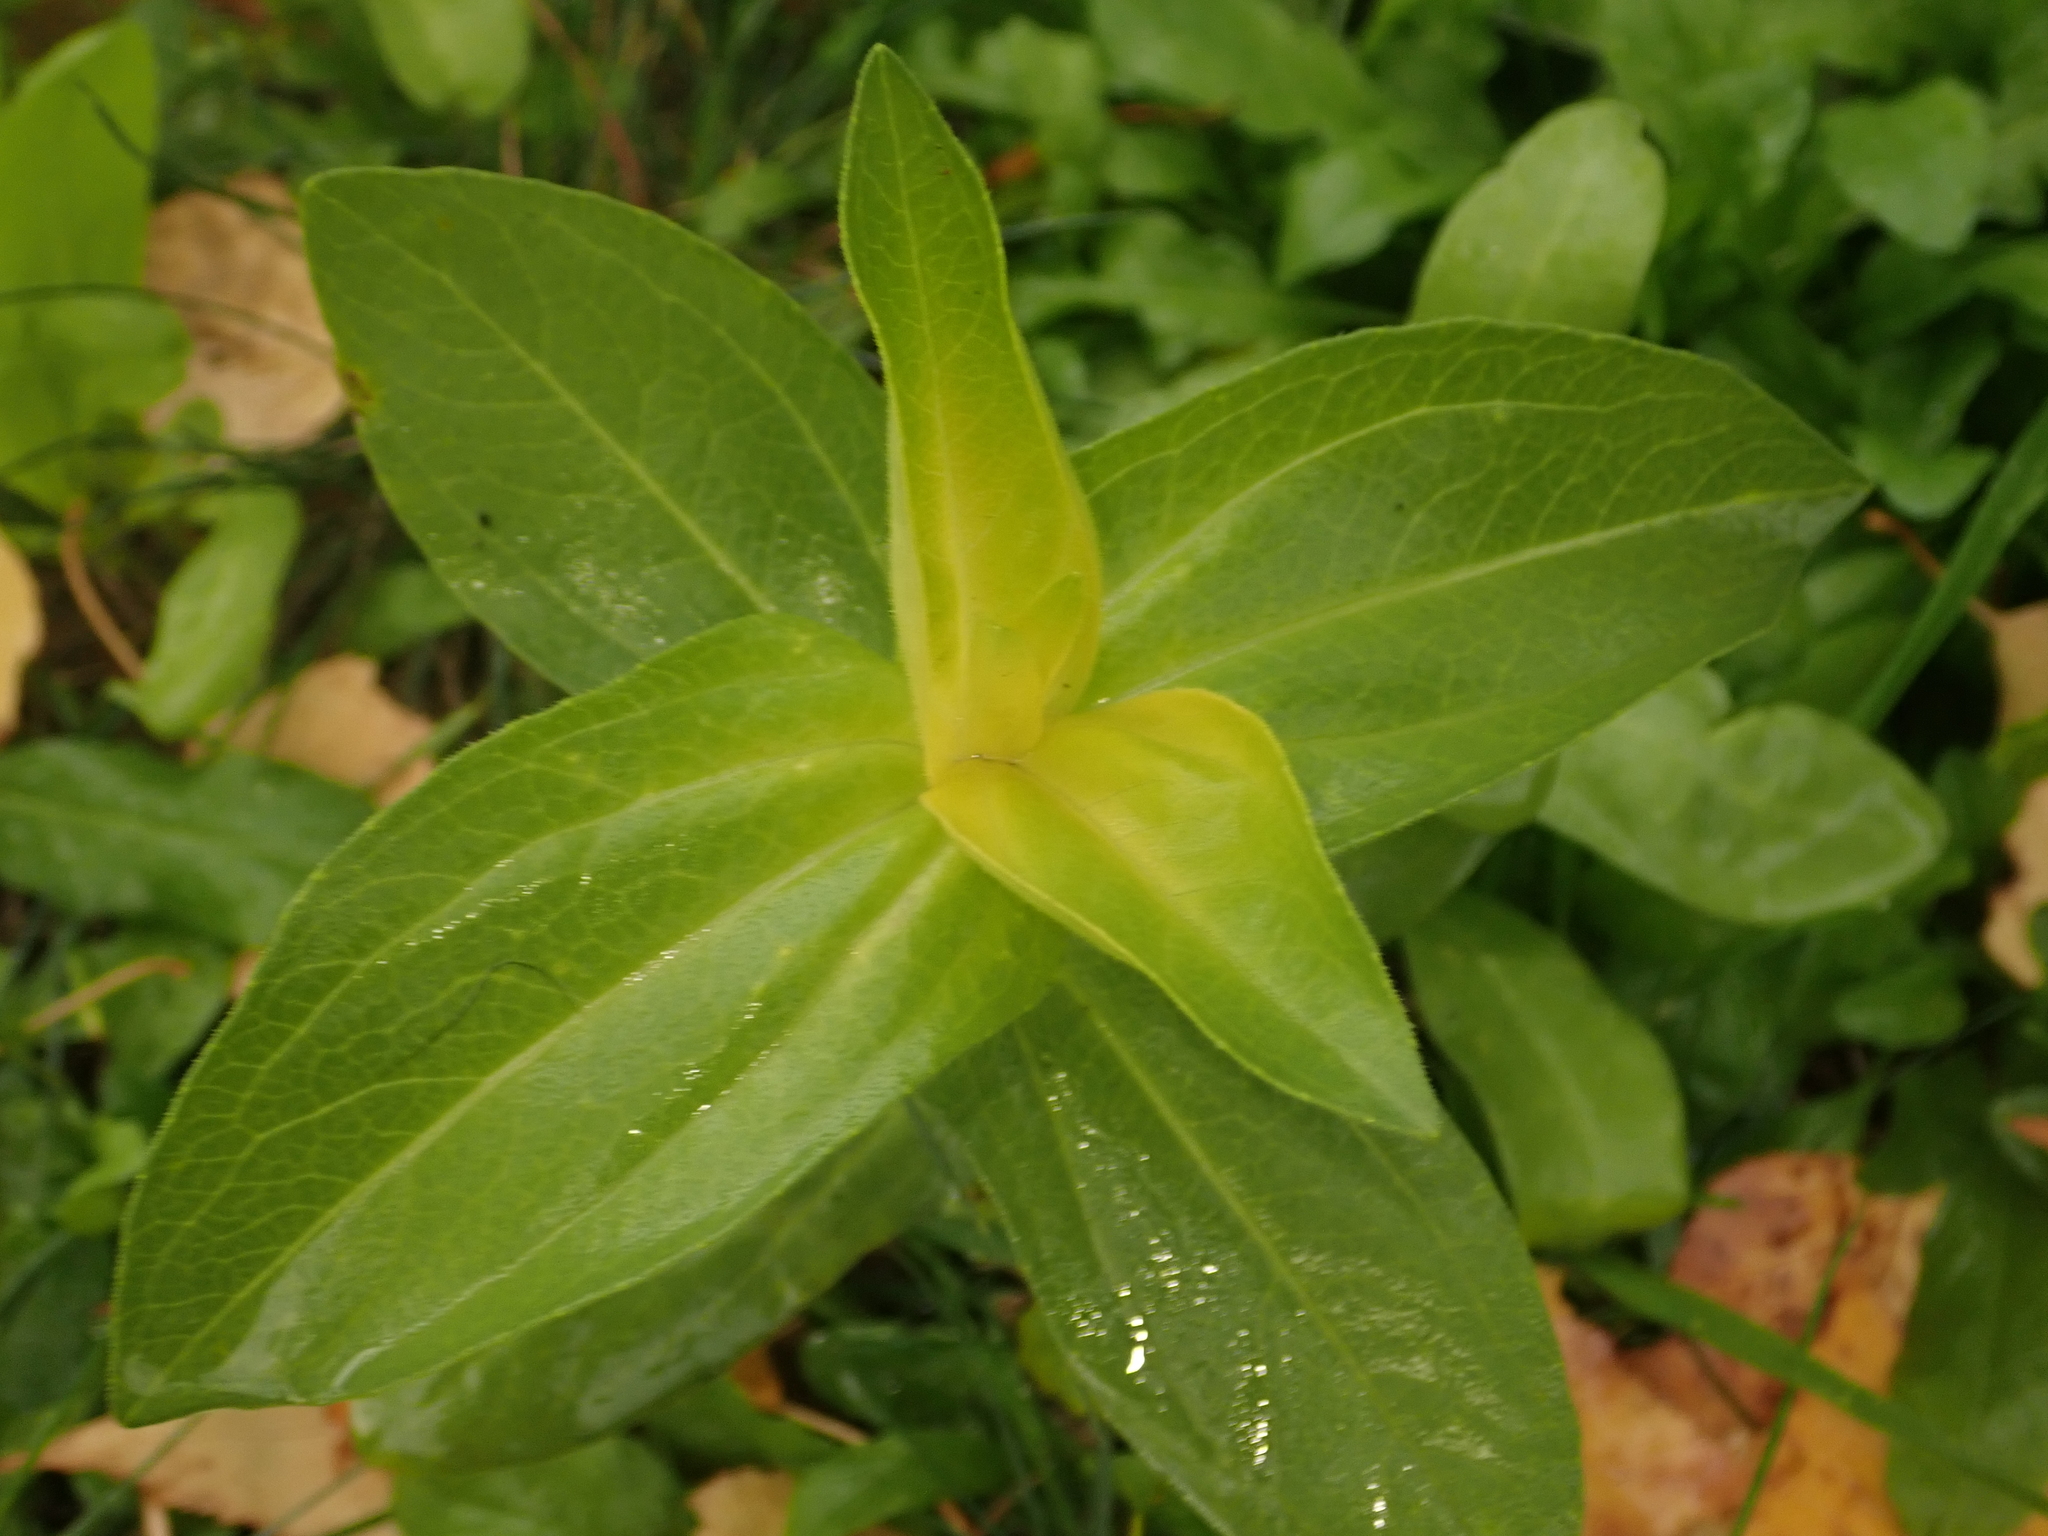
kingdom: Plantae
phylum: Tracheophyta
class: Magnoliopsida
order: Asterales
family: Asteraceae
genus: Zinnia
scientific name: Zinnia elegans
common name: Youth-and-age
